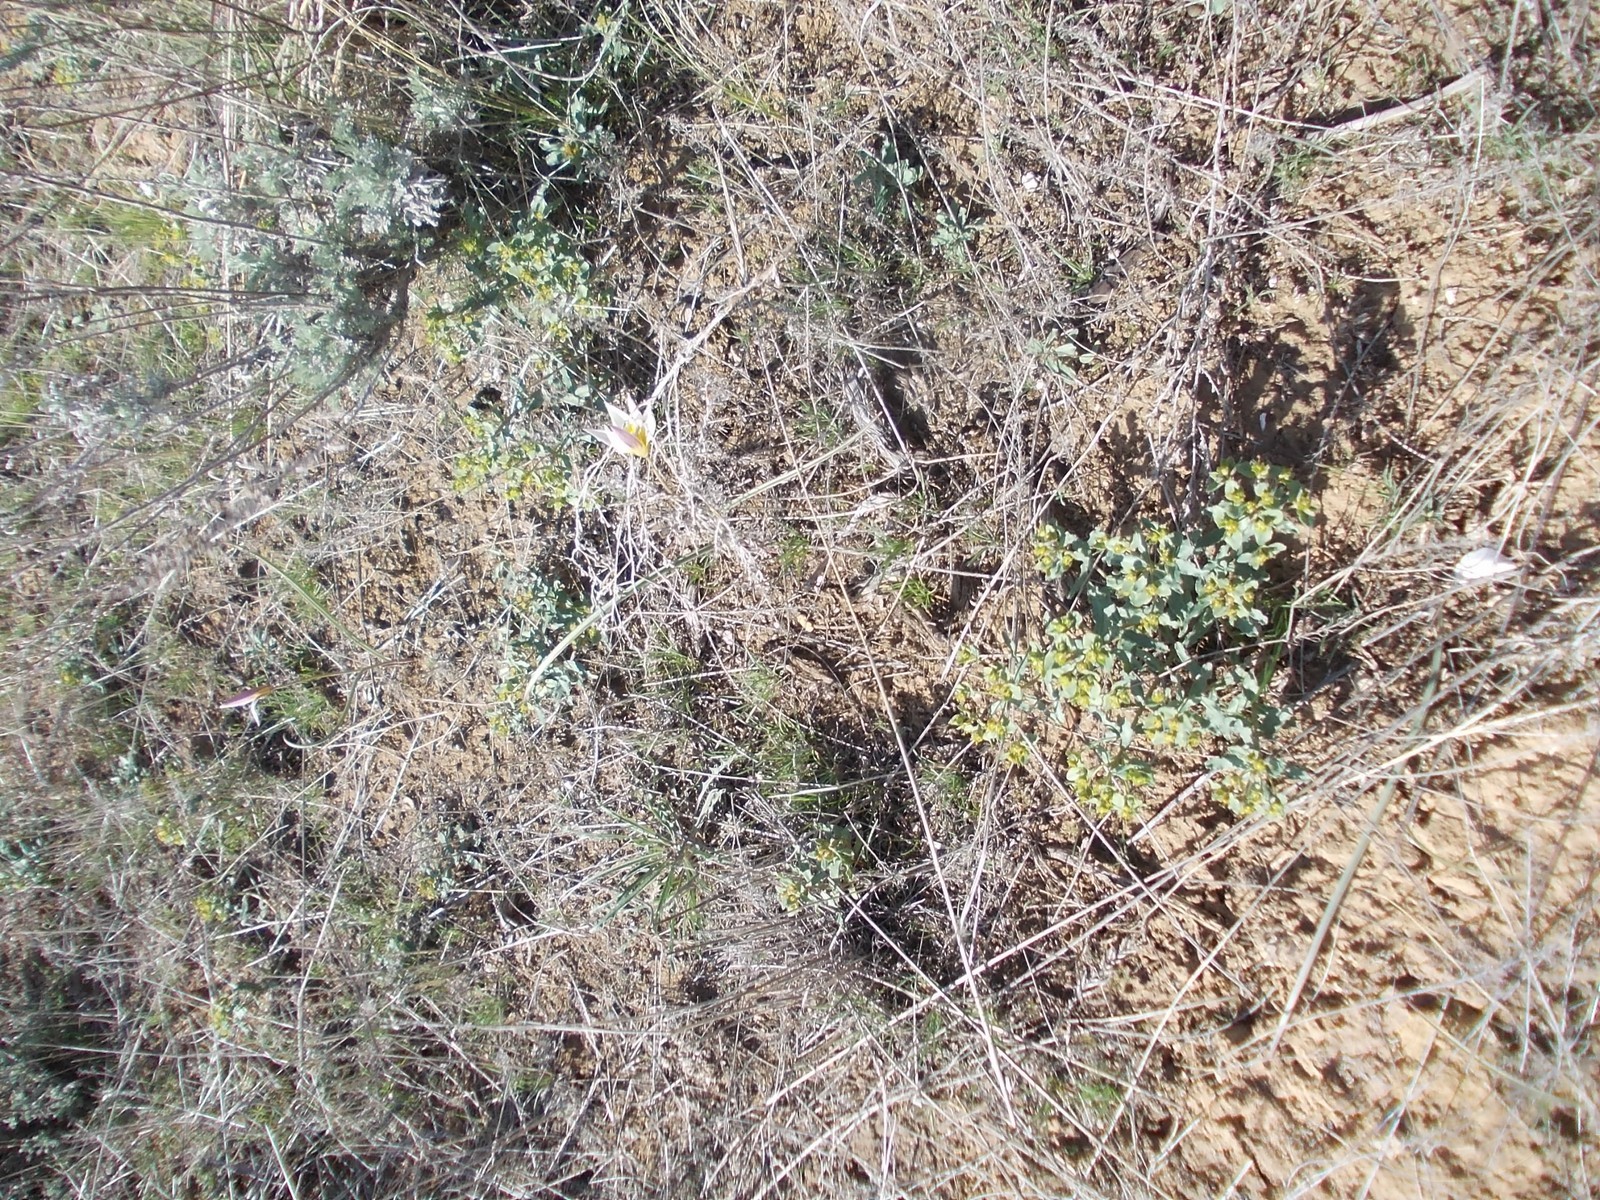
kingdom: Plantae
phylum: Tracheophyta
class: Liliopsida
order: Liliales
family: Liliaceae
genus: Tulipa
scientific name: Tulipa biflora
